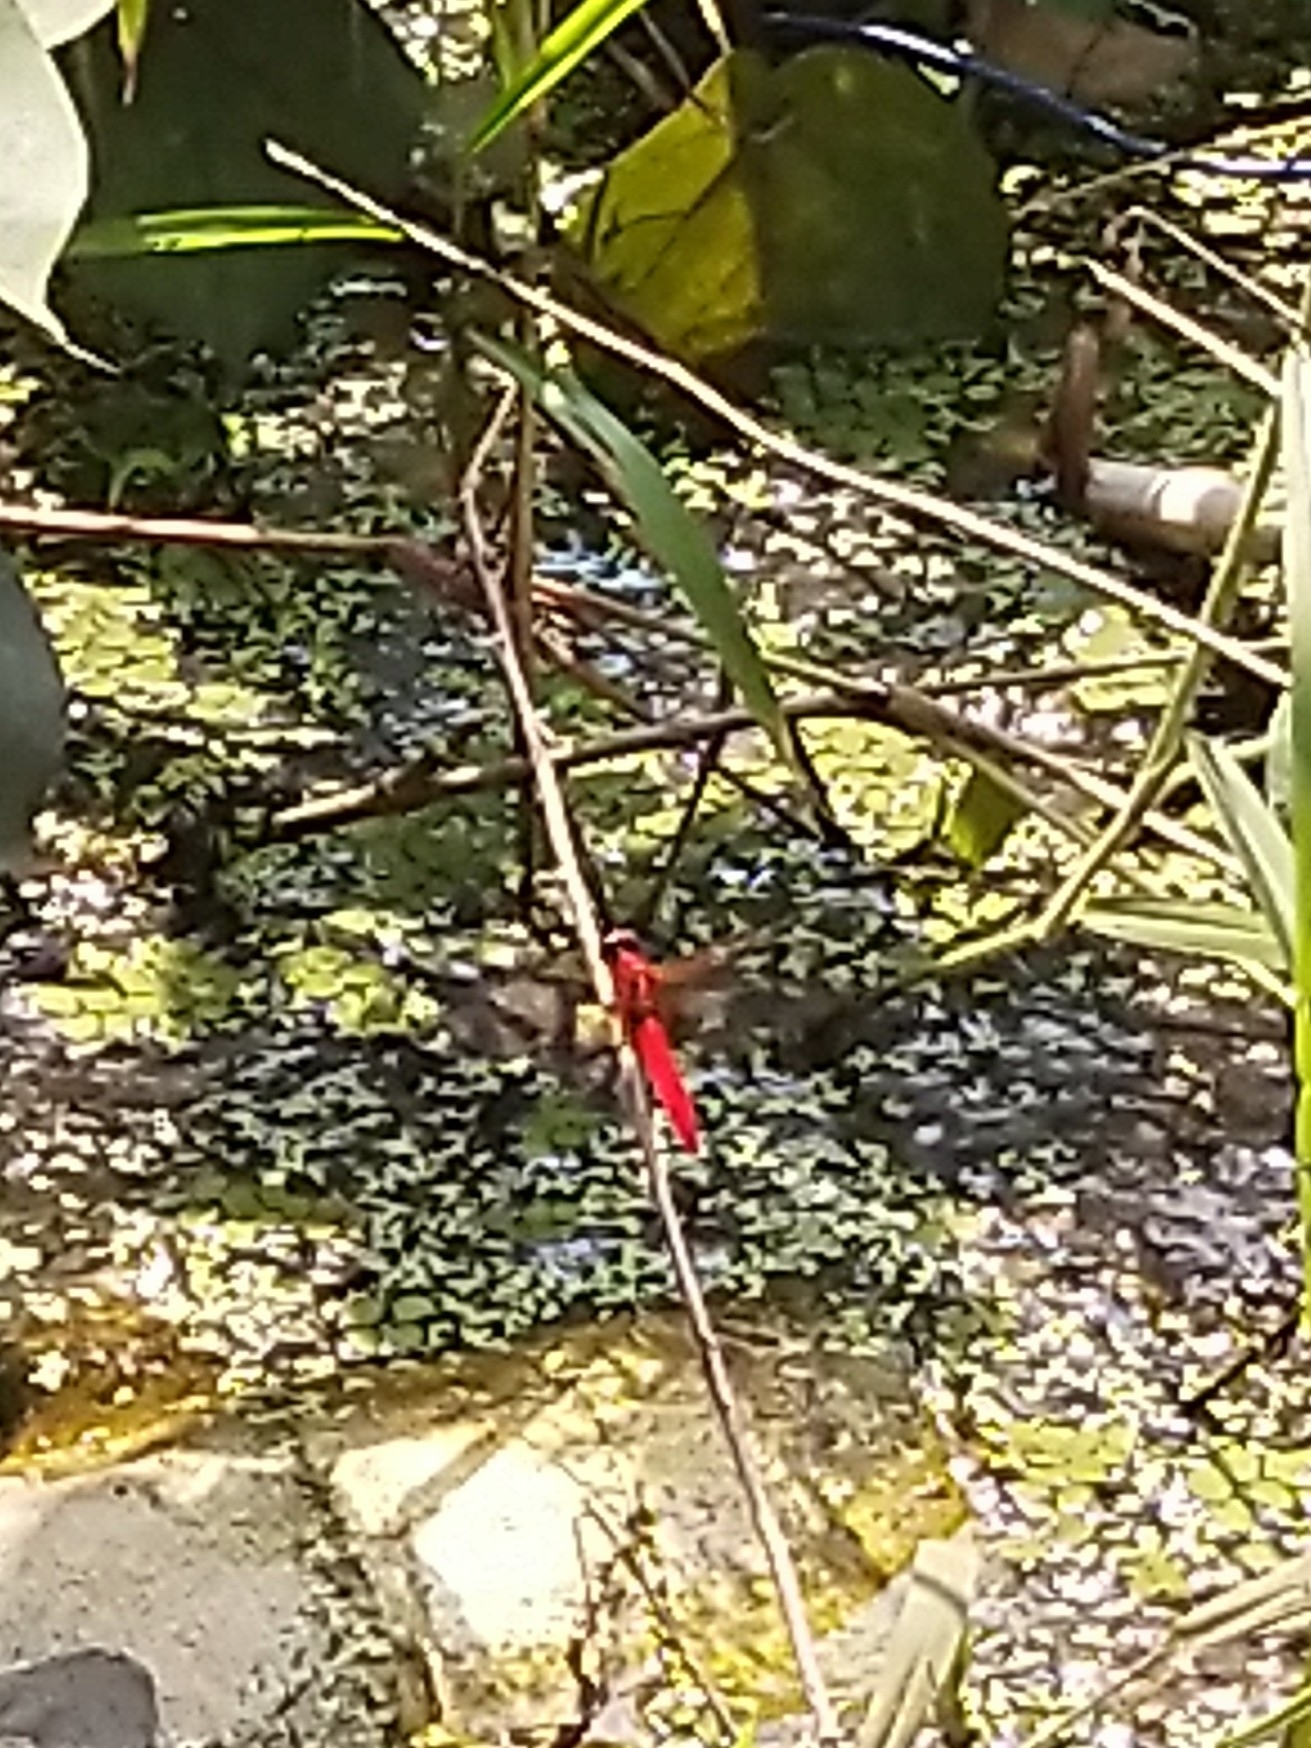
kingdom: Animalia
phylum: Arthropoda
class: Insecta
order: Odonata
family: Libellulidae
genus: Rhodothemis
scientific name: Rhodothemis rufa
